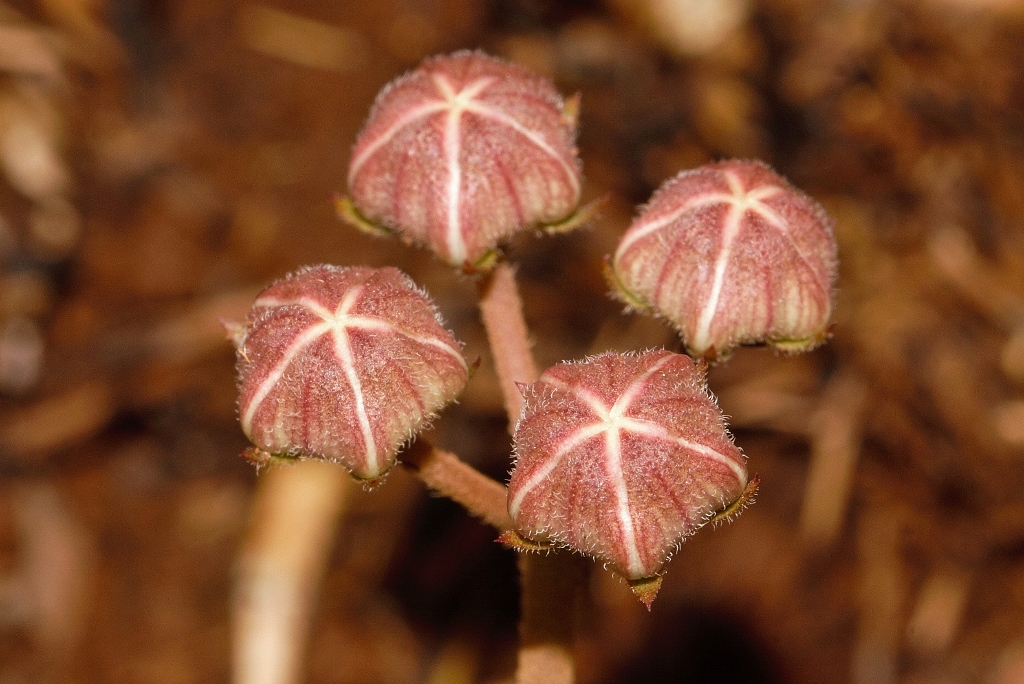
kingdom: Plantae
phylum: Tracheophyta
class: Magnoliopsida
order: Gentianales
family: Apocynaceae
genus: Asclepias
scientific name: Asclepias cucullata
